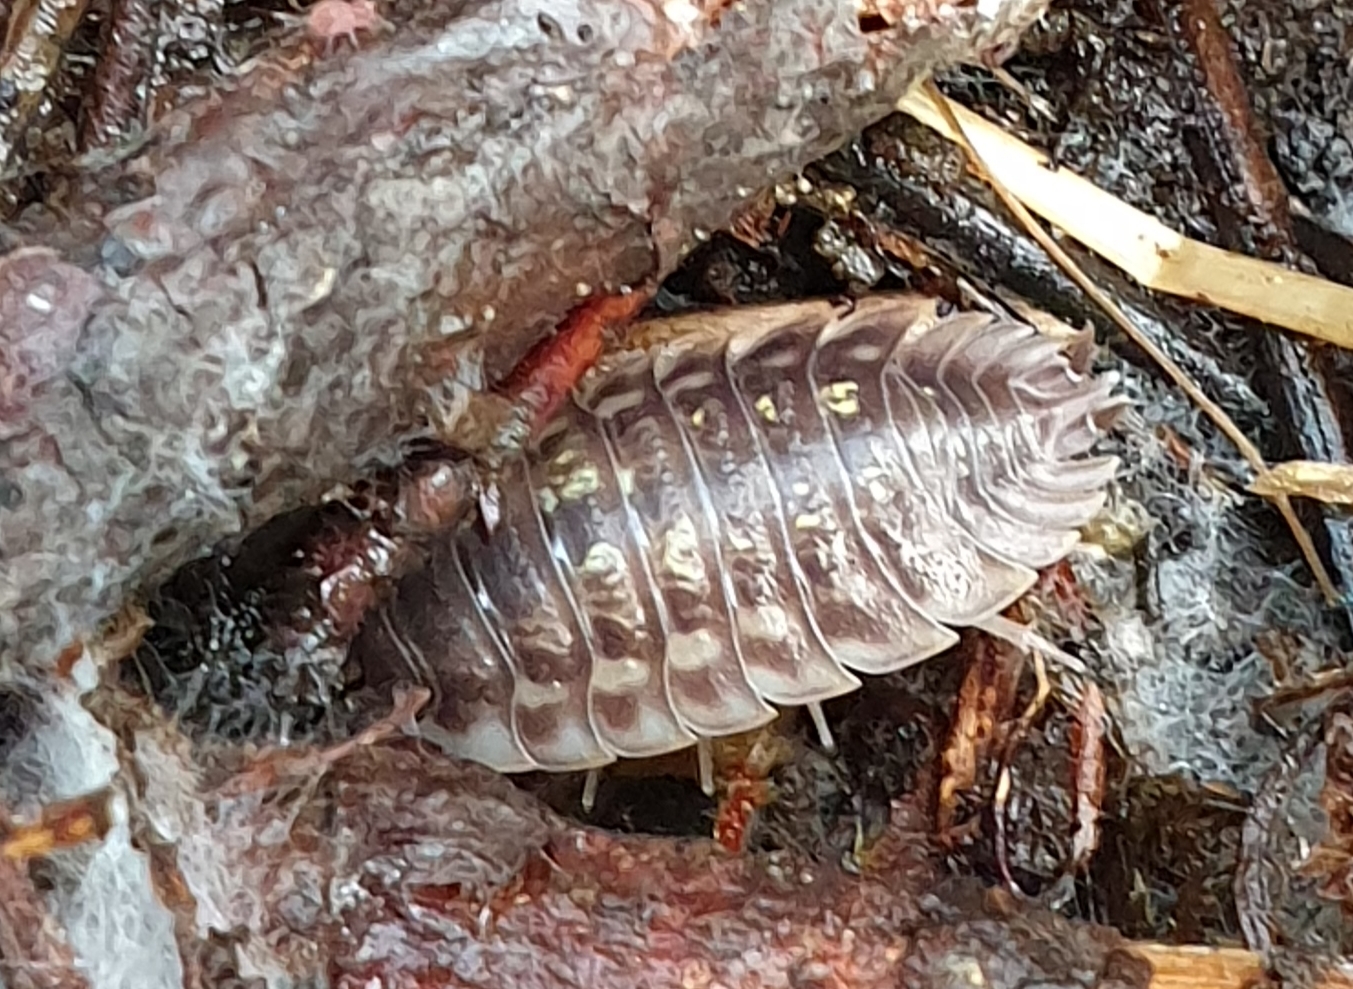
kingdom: Animalia
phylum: Arthropoda
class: Malacostraca
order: Isopoda
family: Oniscidae
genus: Oniscus
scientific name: Oniscus asellus
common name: Common shiny woodlouse
